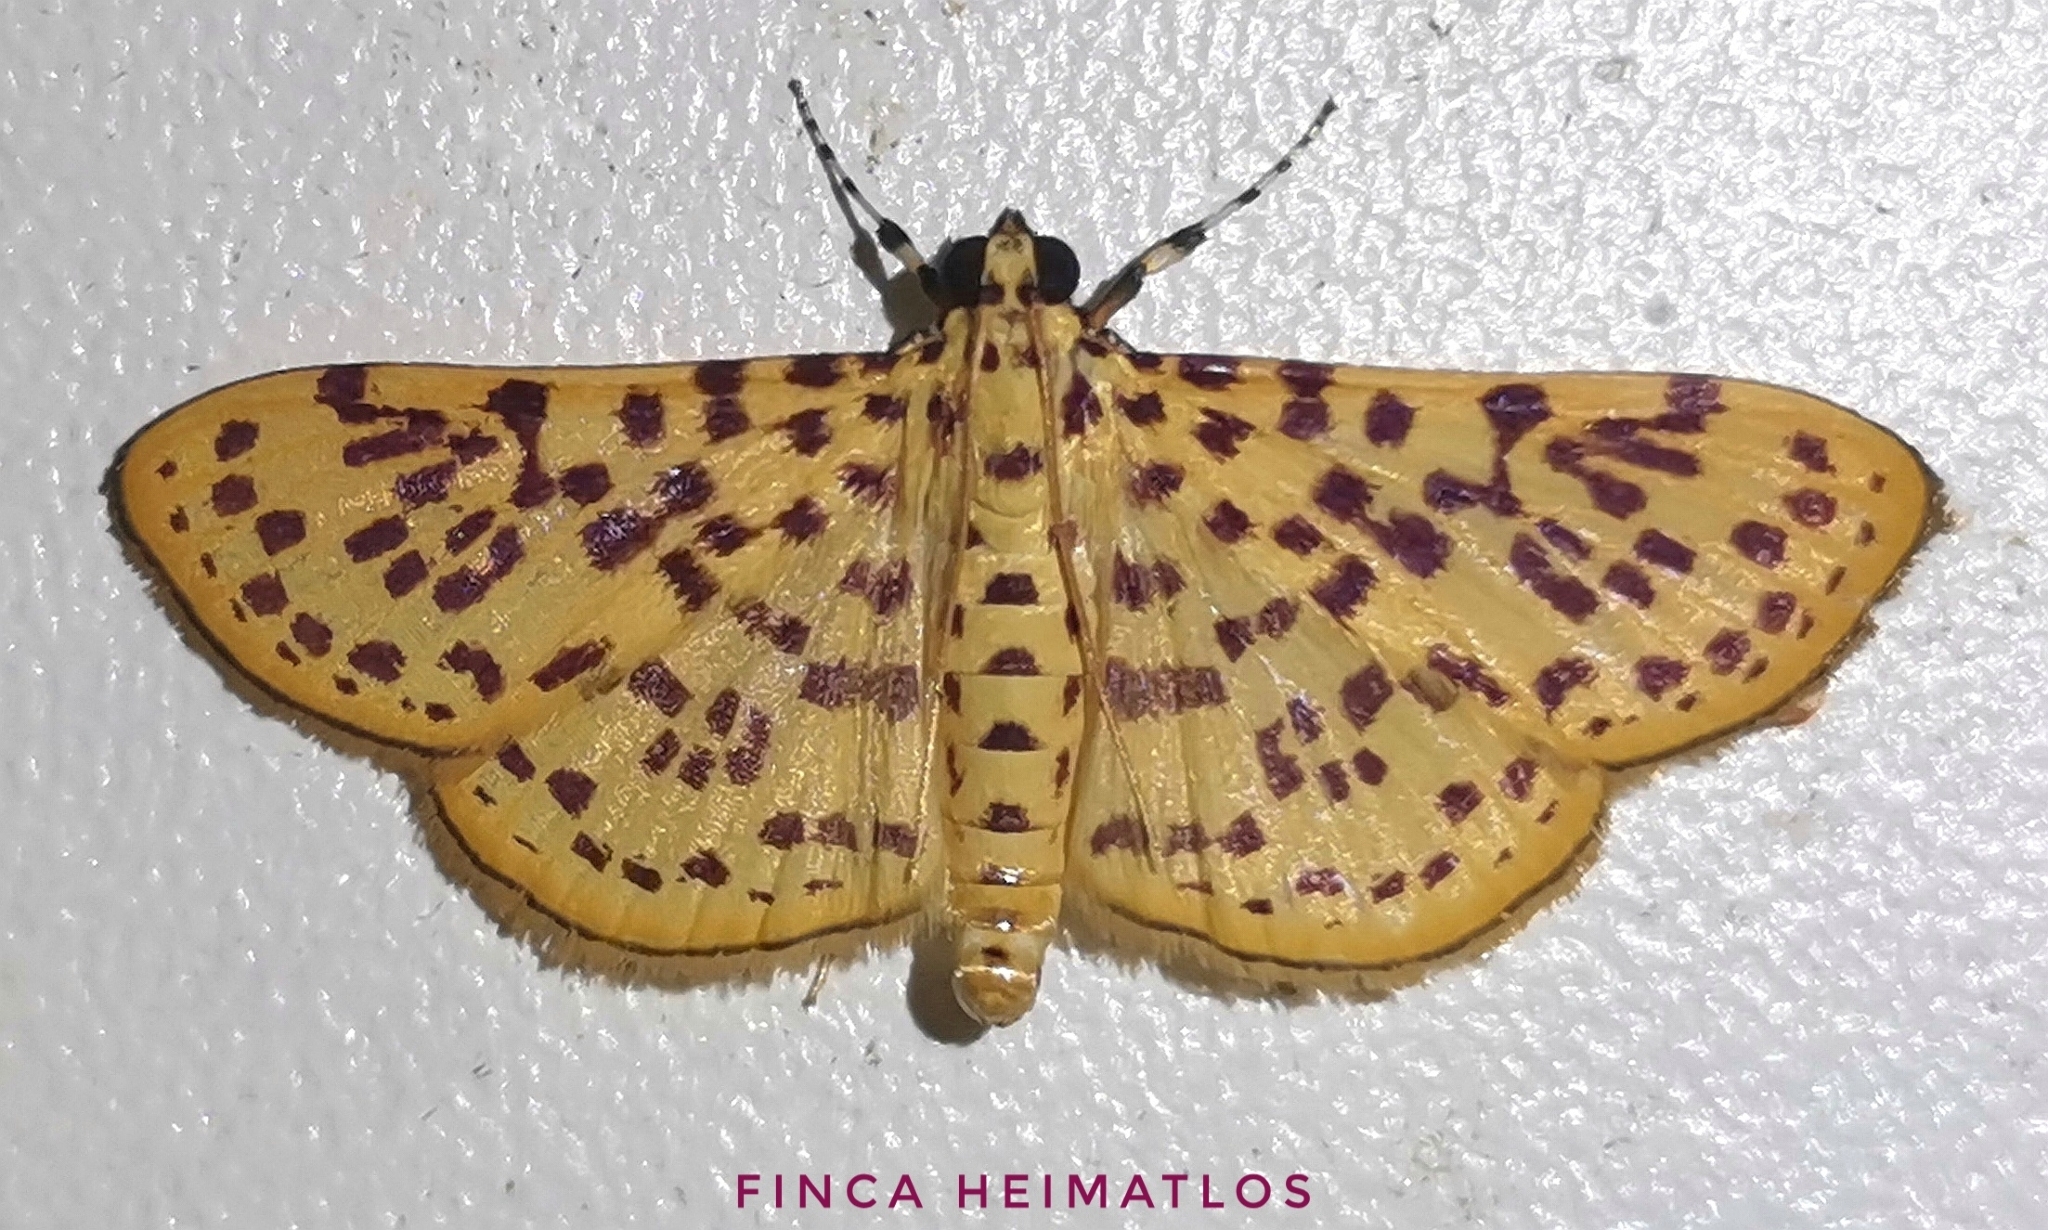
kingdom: Animalia
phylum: Arthropoda
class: Insecta
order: Lepidoptera
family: Crambidae
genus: Polygrammodes
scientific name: Polygrammodes elevata
